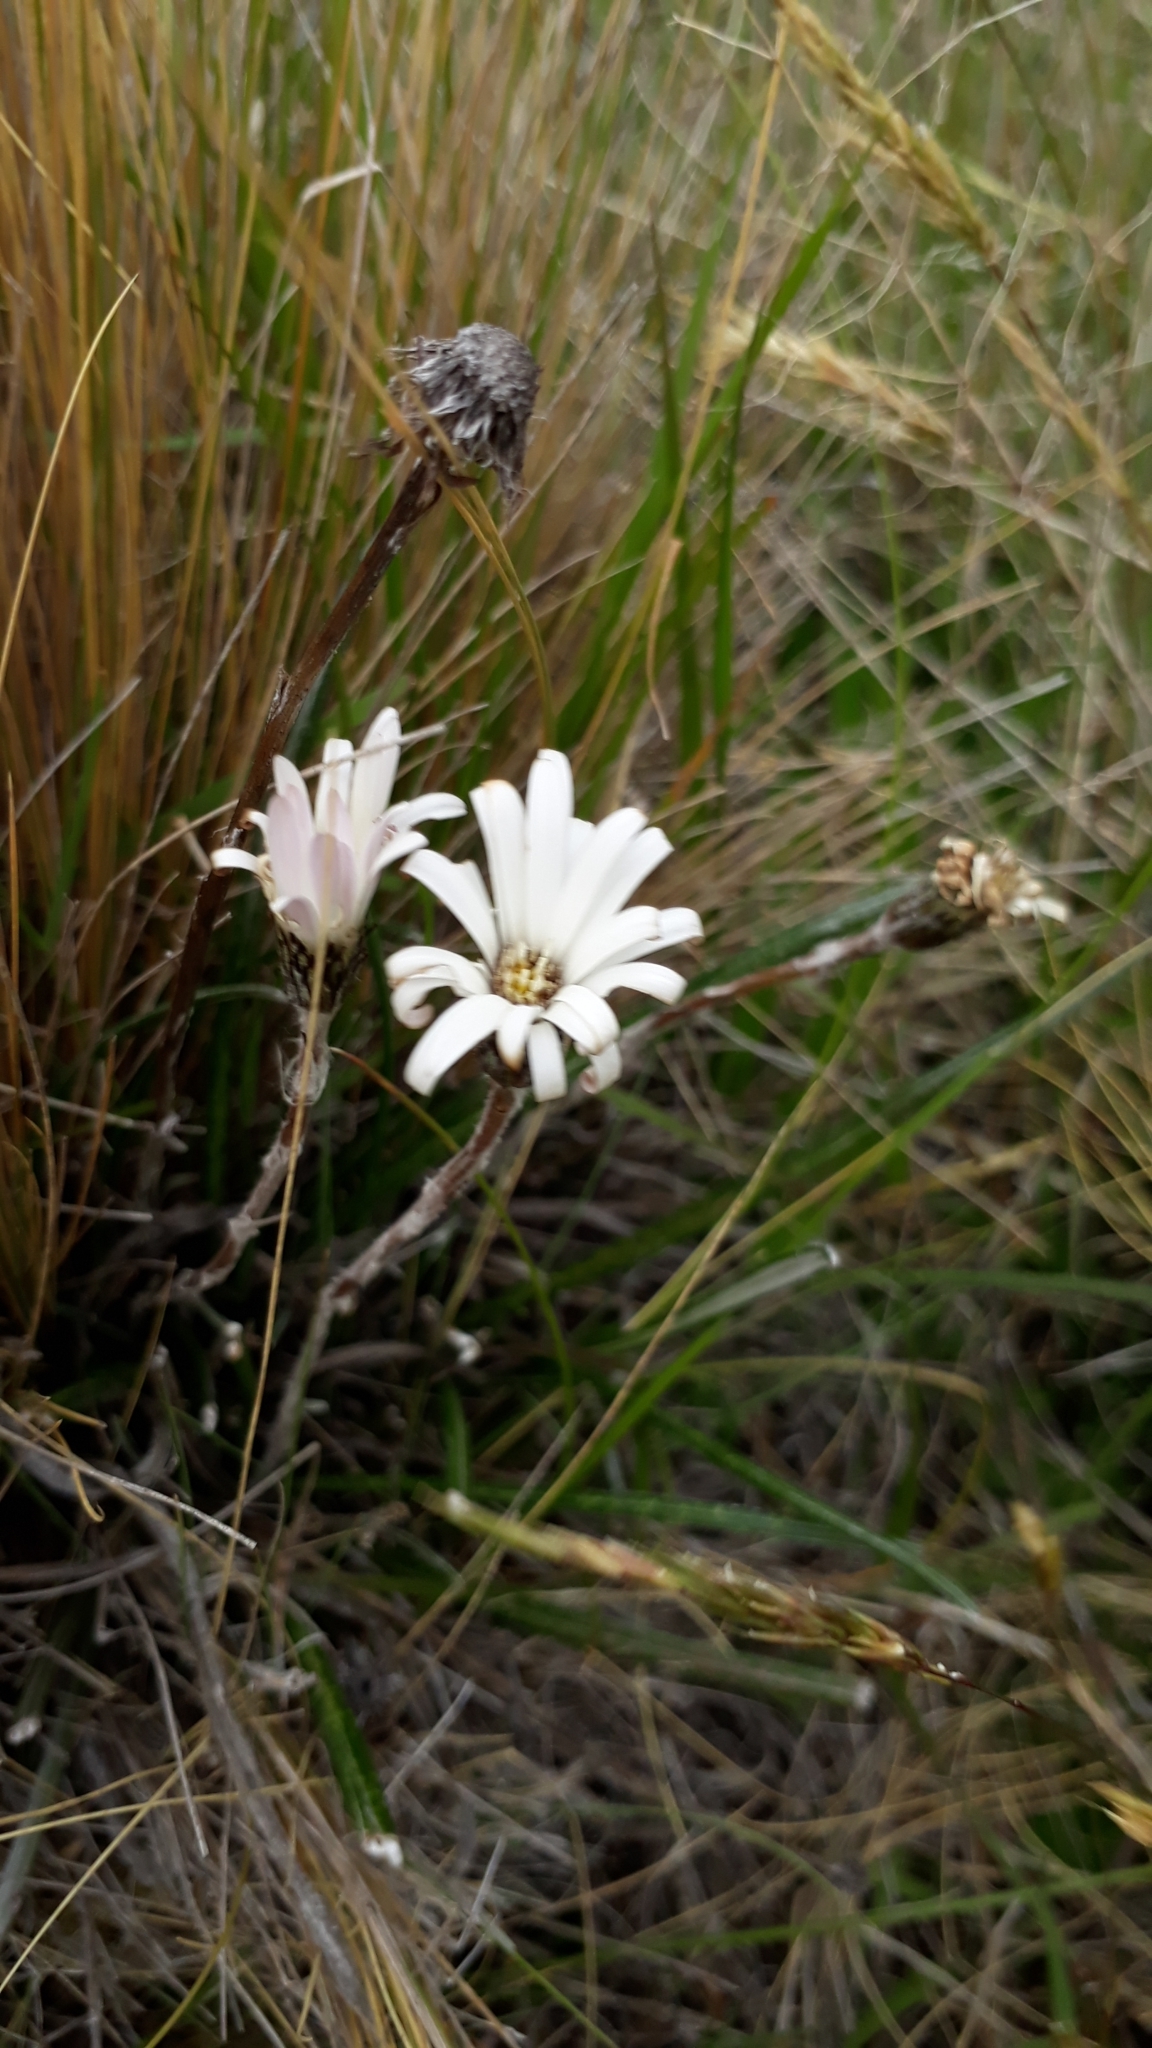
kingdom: Plantae
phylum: Tracheophyta
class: Magnoliopsida
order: Asterales
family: Asteraceae
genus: Celmisia
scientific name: Celmisia gracilenta
